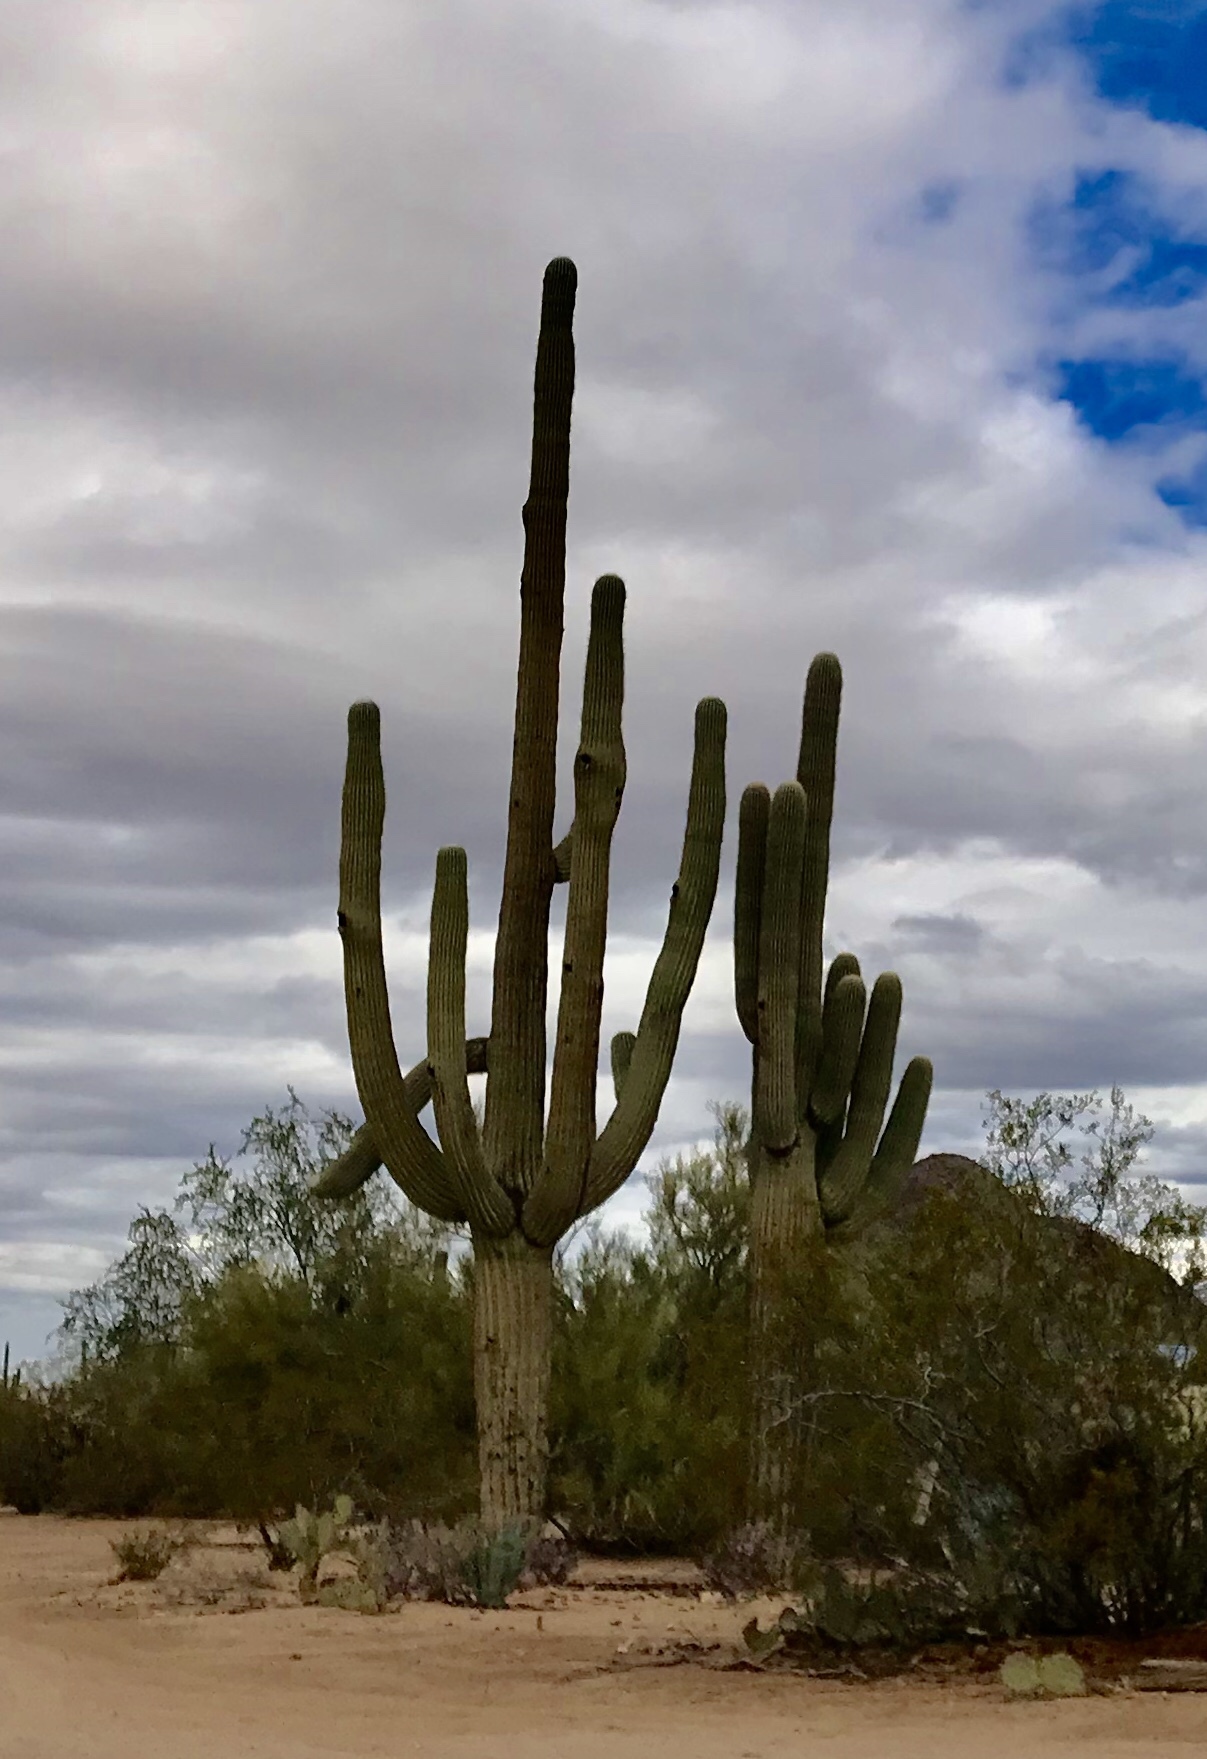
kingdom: Plantae
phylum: Tracheophyta
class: Magnoliopsida
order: Caryophyllales
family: Cactaceae
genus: Carnegiea
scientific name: Carnegiea gigantea
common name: Saguaro
